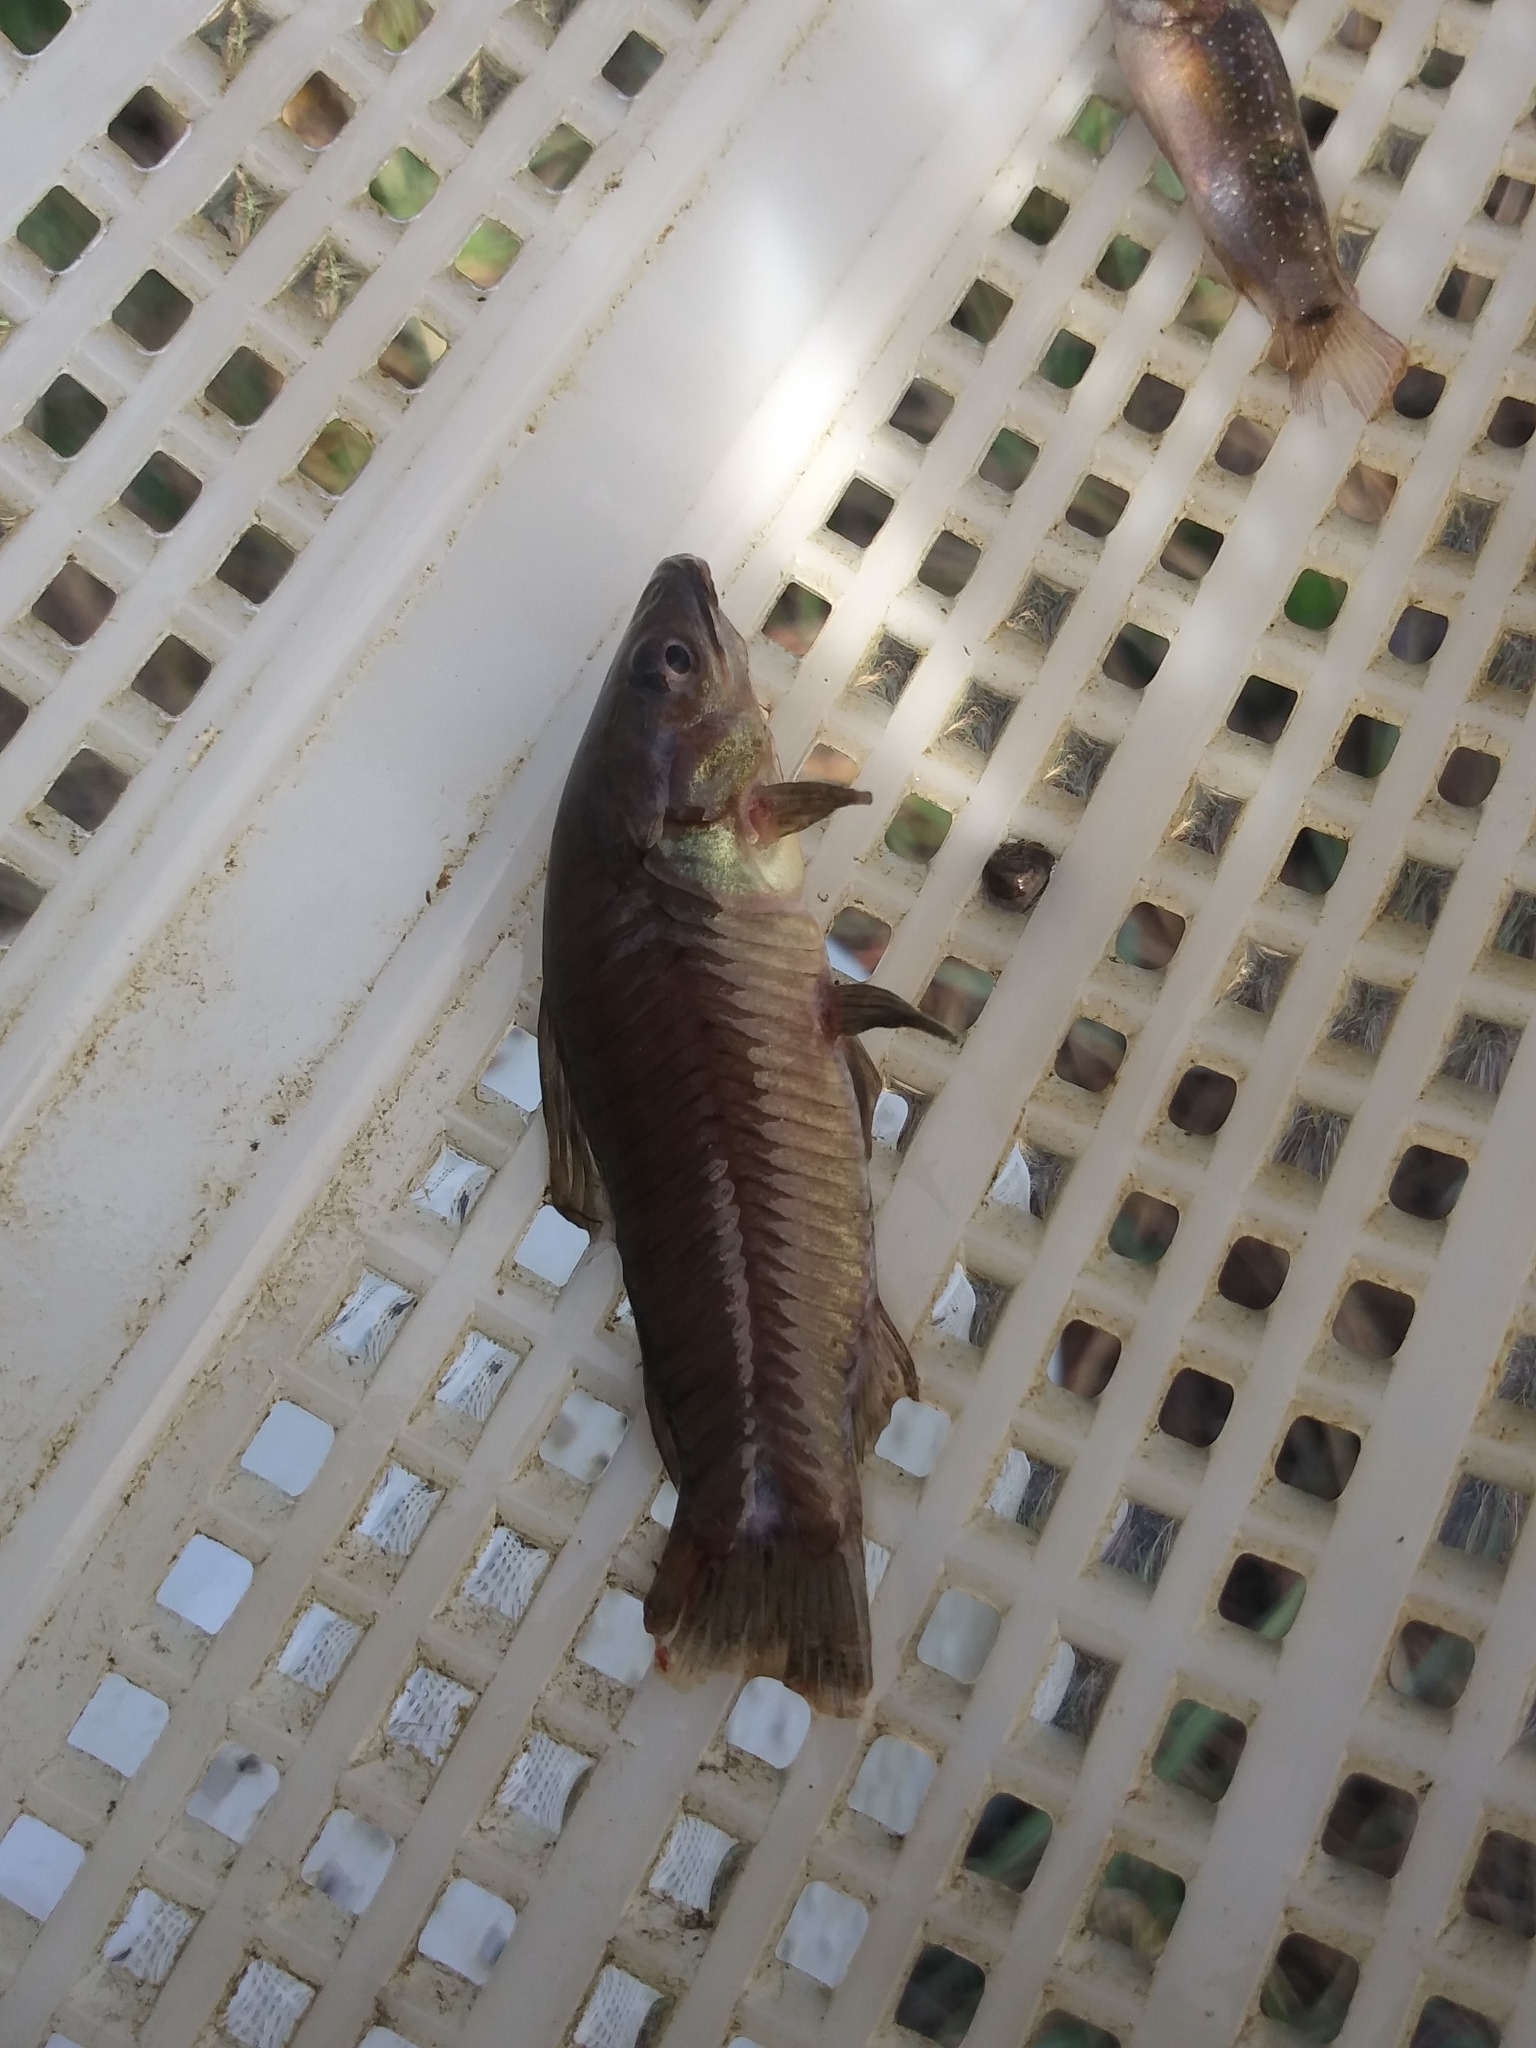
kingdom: Animalia
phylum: Chordata
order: Siluriformes
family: Callichthyidae
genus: Hoplosternum
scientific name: Hoplosternum littorale
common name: Brown hoplo
